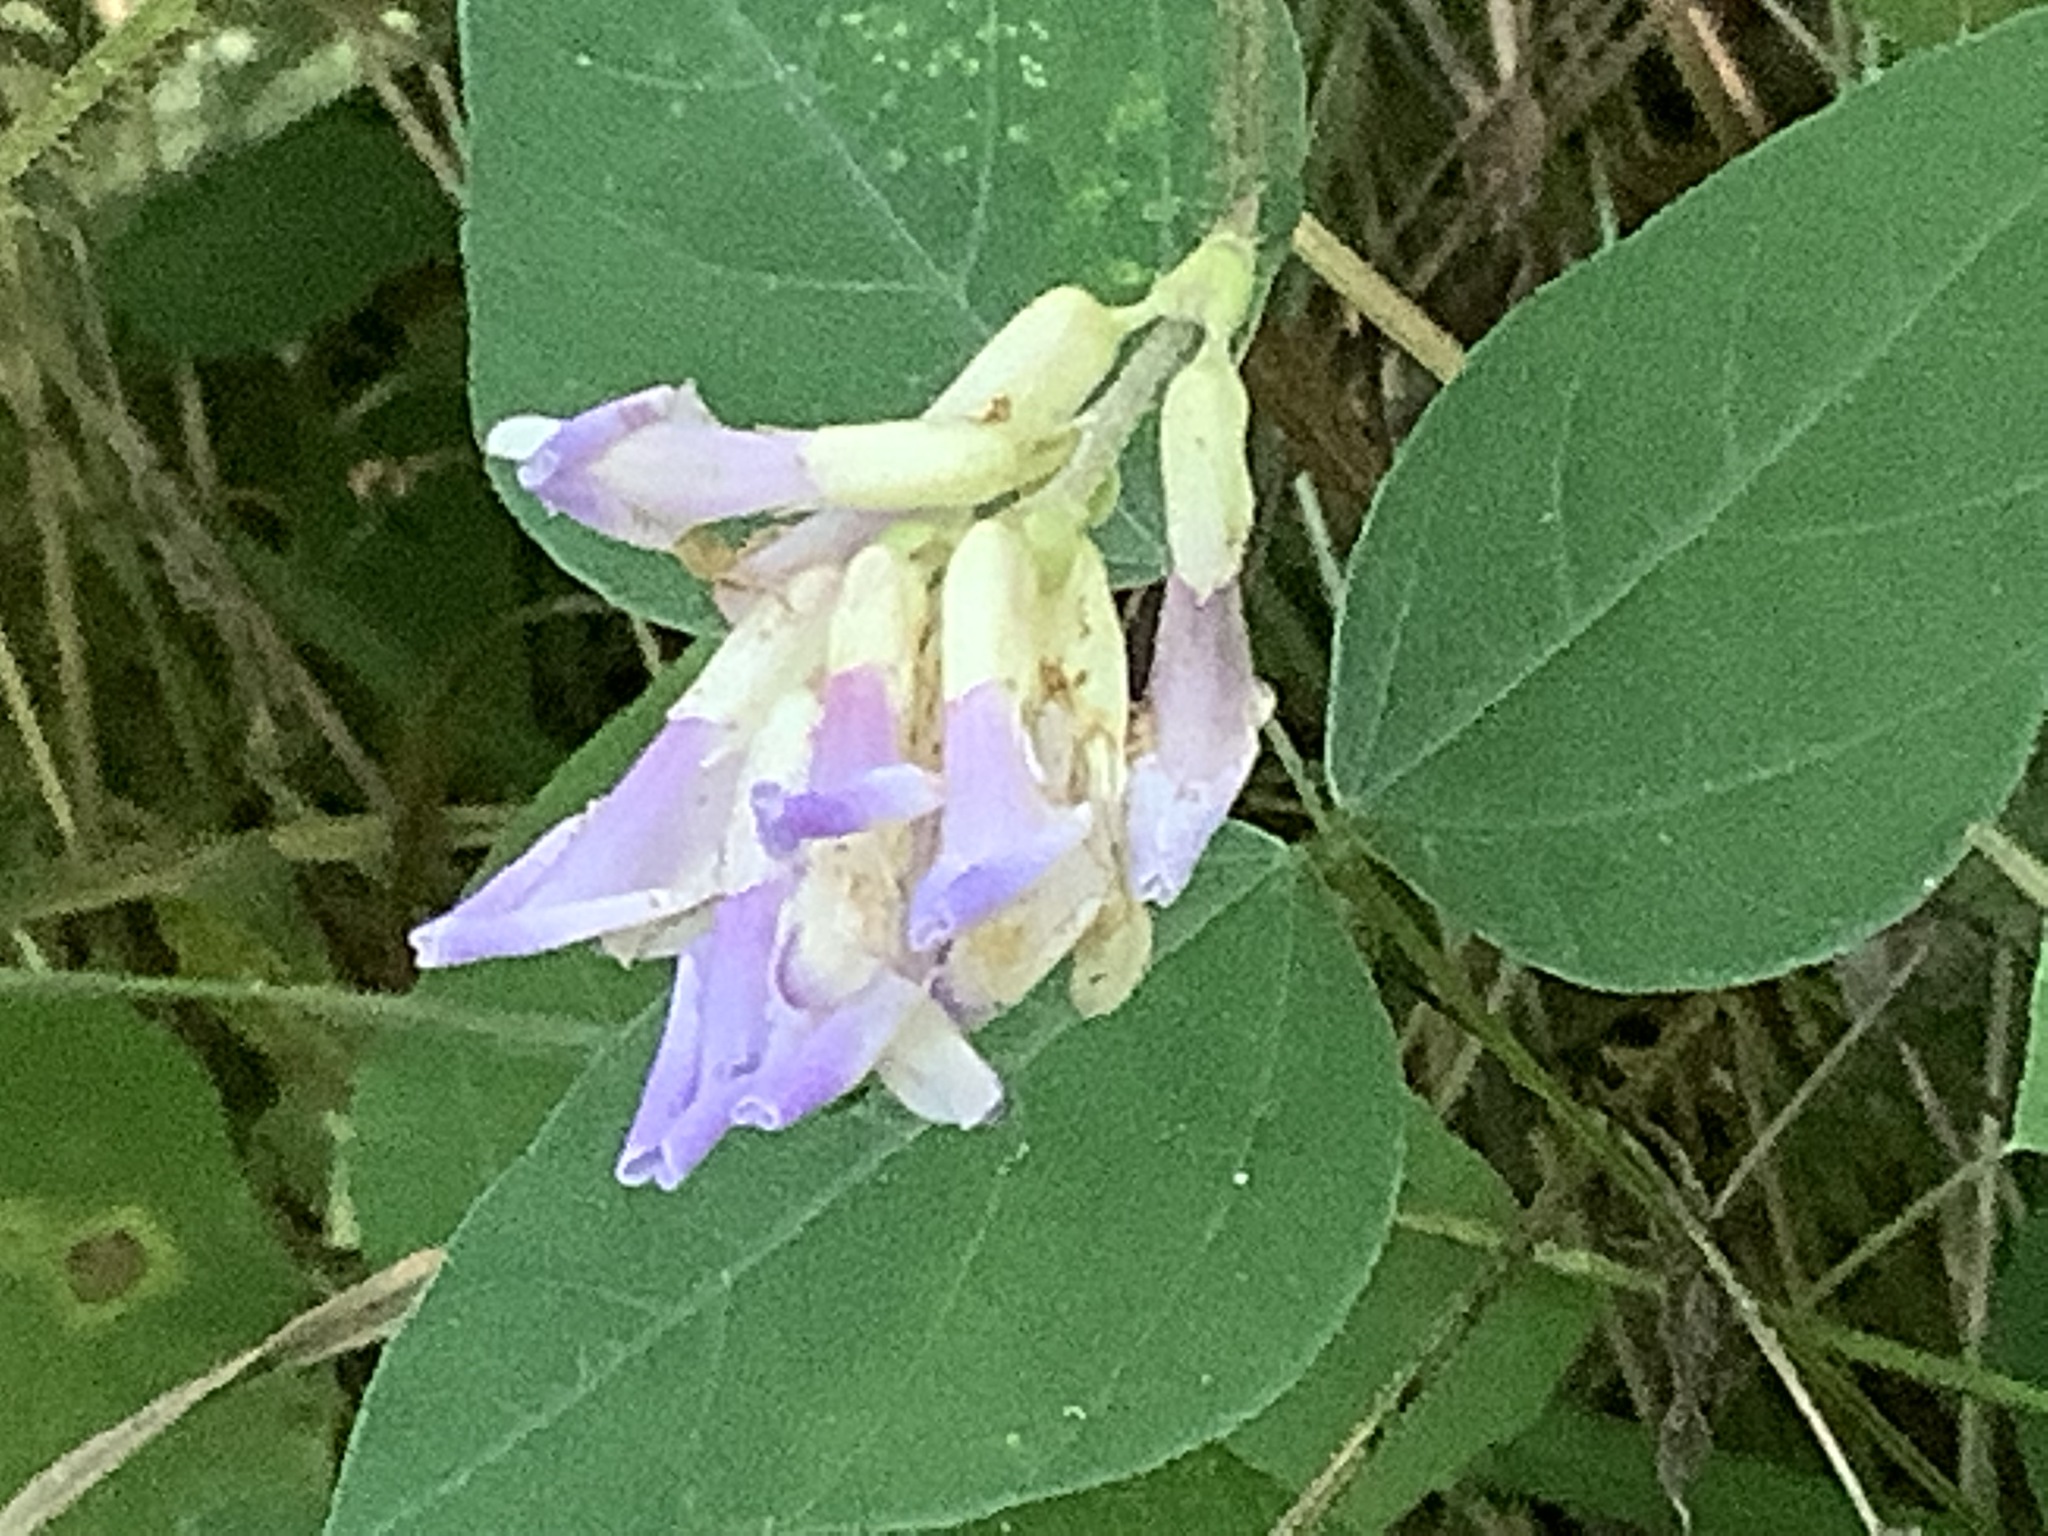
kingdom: Plantae
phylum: Tracheophyta
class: Magnoliopsida
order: Fabales
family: Fabaceae
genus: Amphicarpaea
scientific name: Amphicarpaea bracteata
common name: American hog peanut
